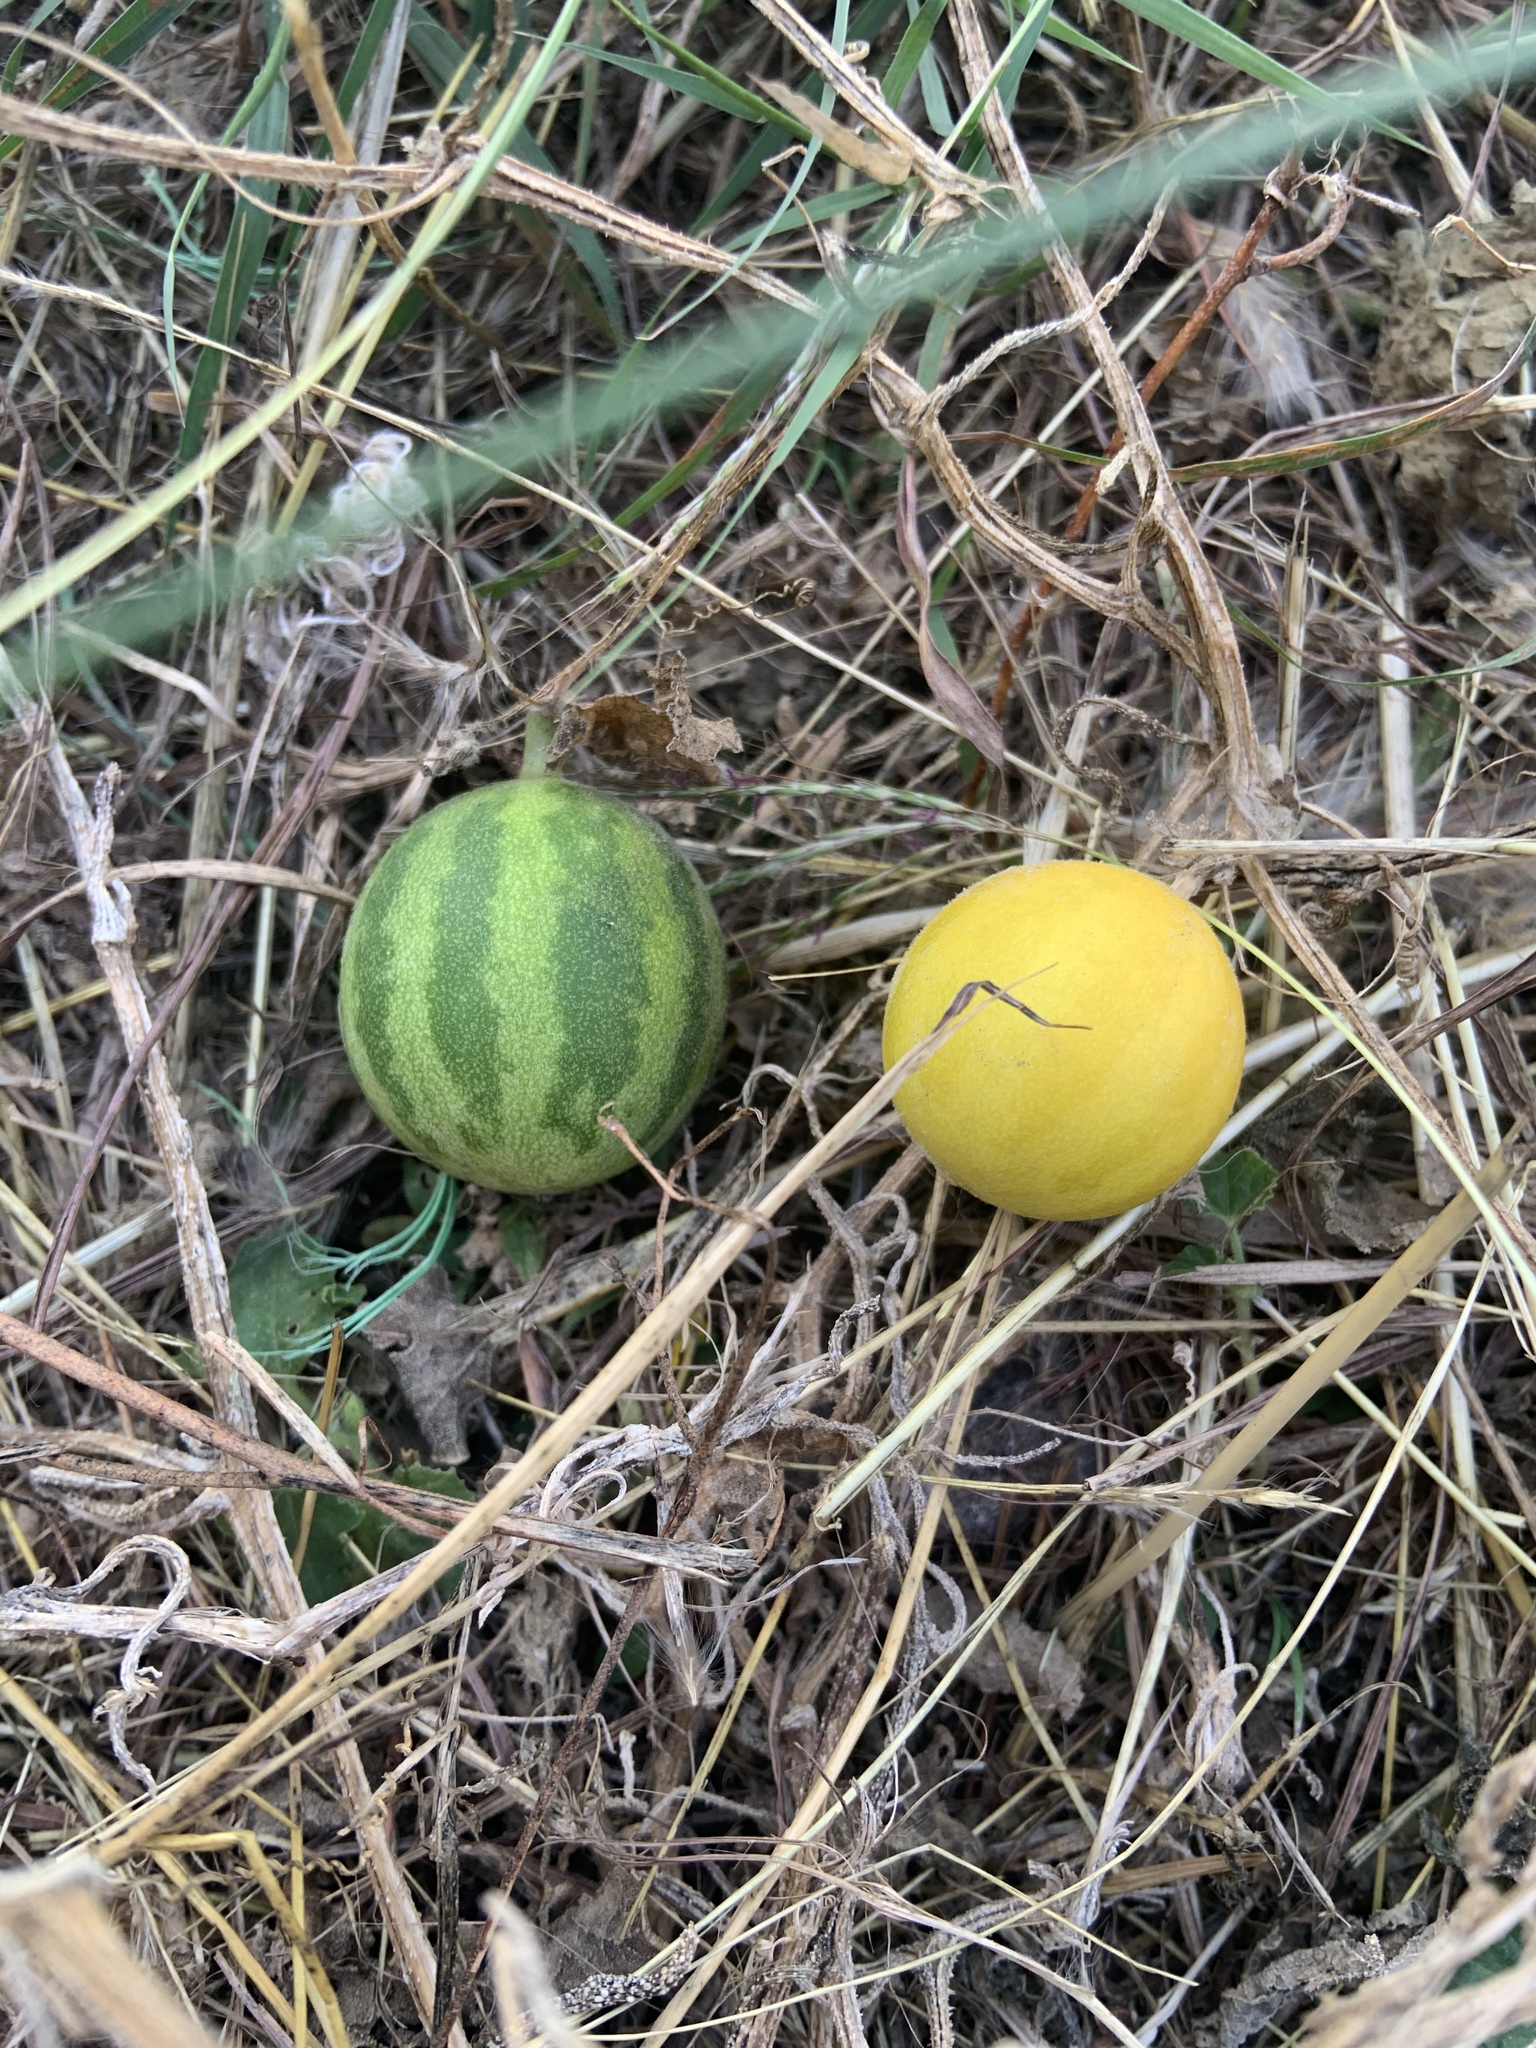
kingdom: Plantae
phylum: Tracheophyta
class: Magnoliopsida
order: Cucurbitales
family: Cucurbitaceae
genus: Cucumis
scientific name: Cucumis melo
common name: Melon
